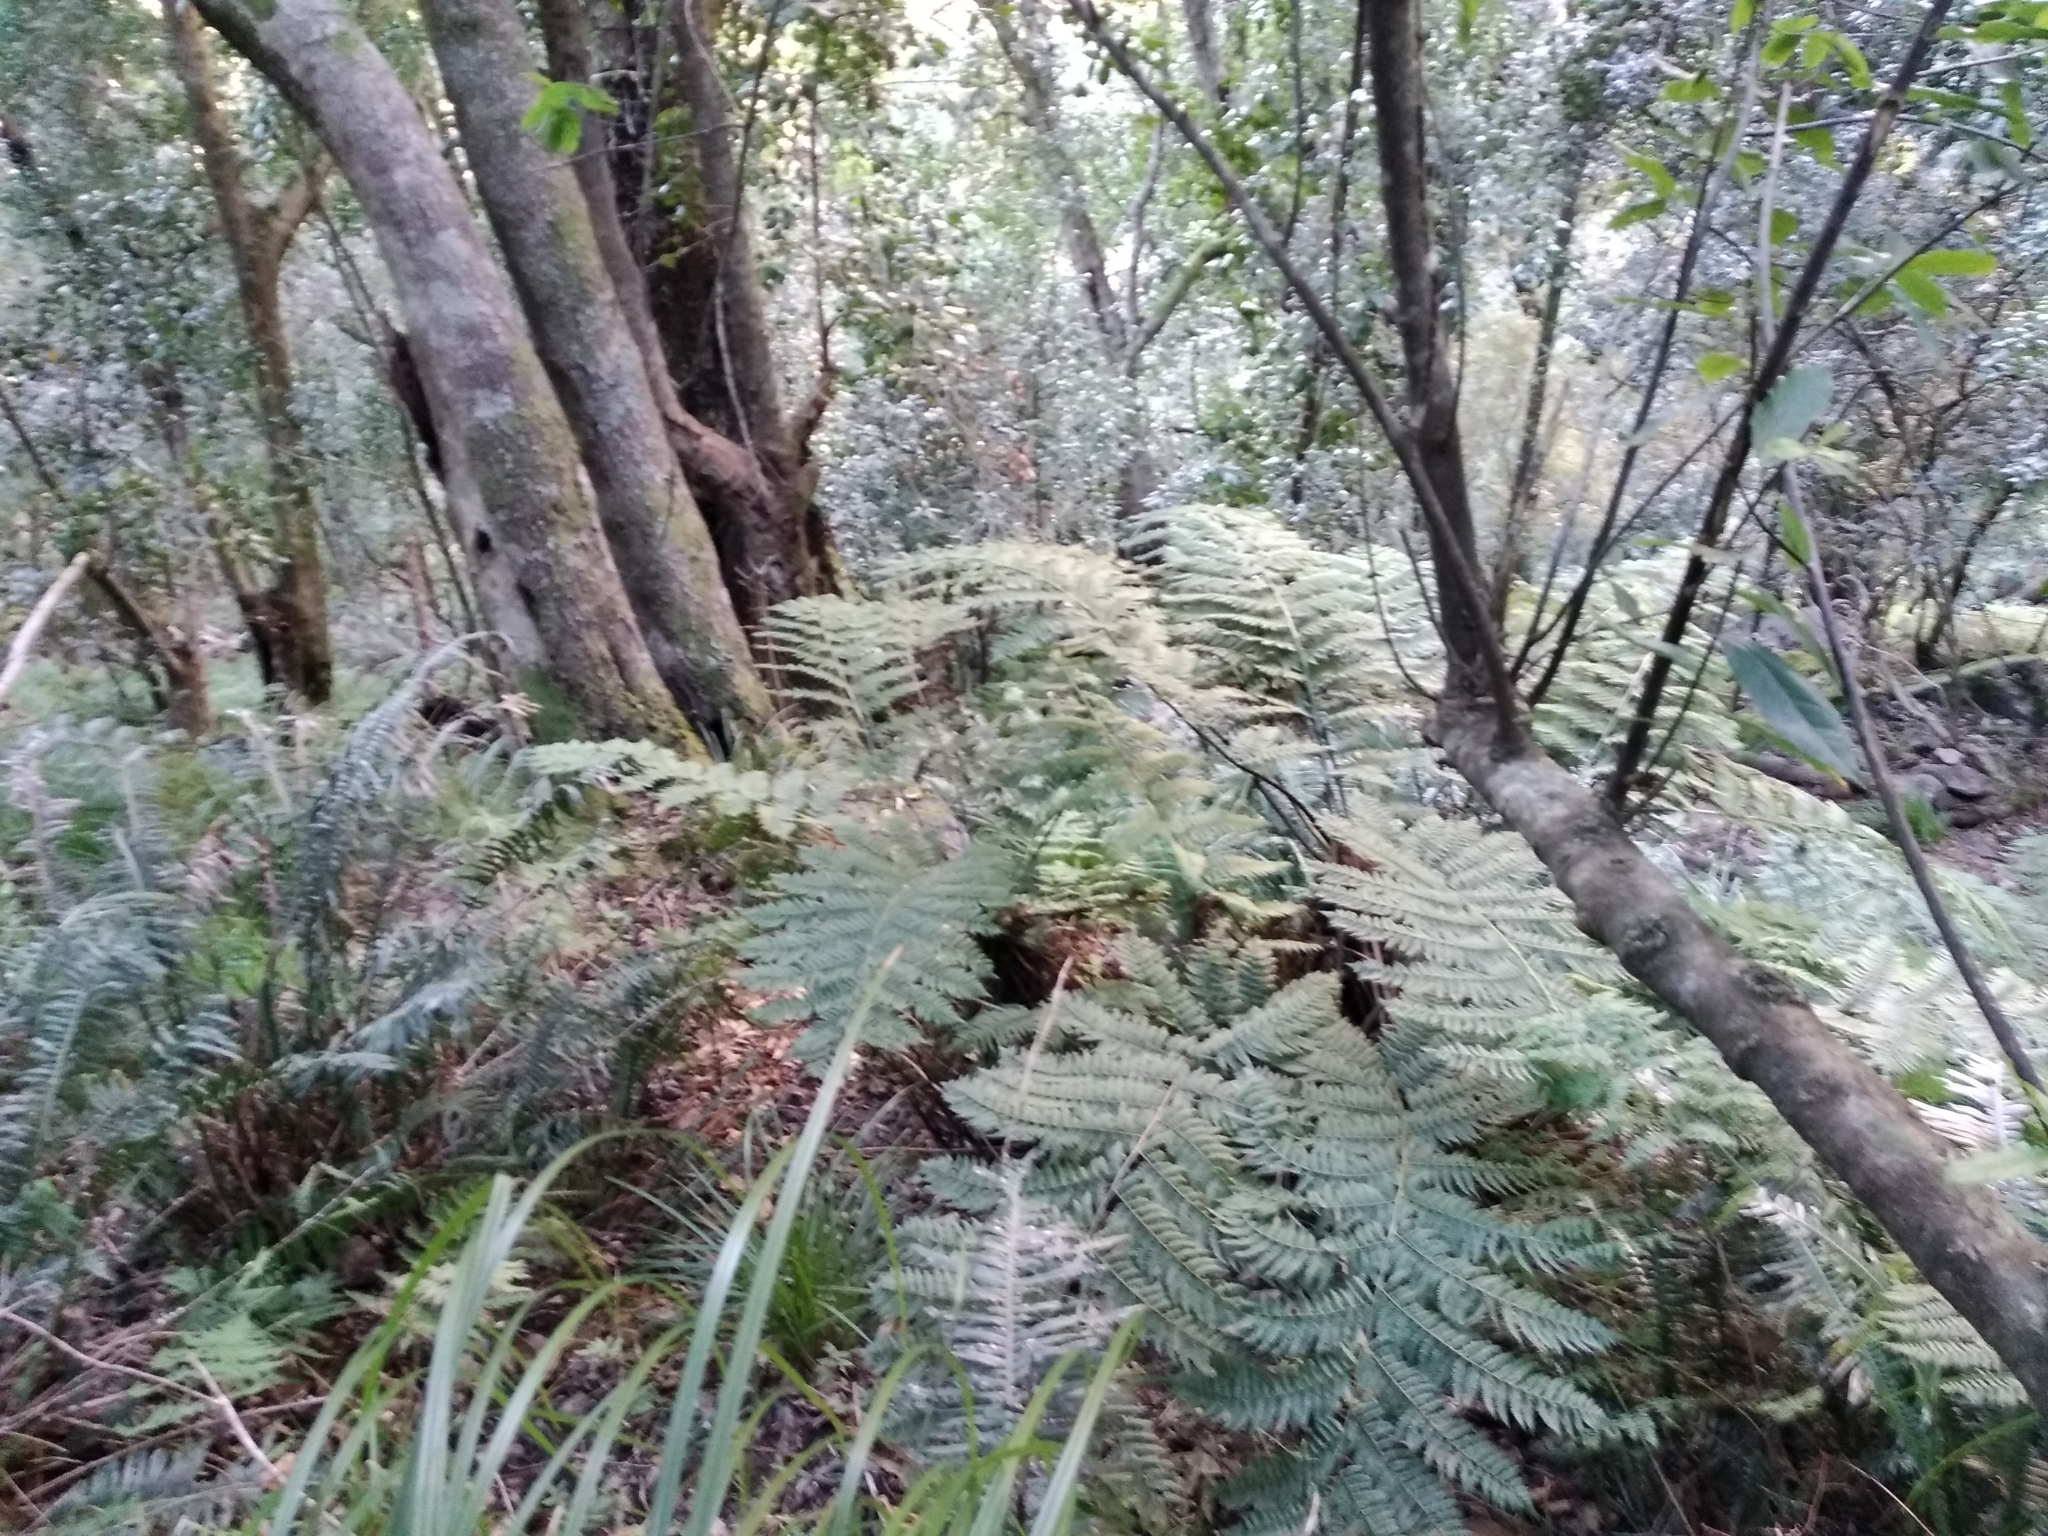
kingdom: Plantae
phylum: Tracheophyta
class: Polypodiopsida
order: Cyatheales
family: Cyatheaceae
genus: Gymnosphaera
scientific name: Gymnosphaera capensis
